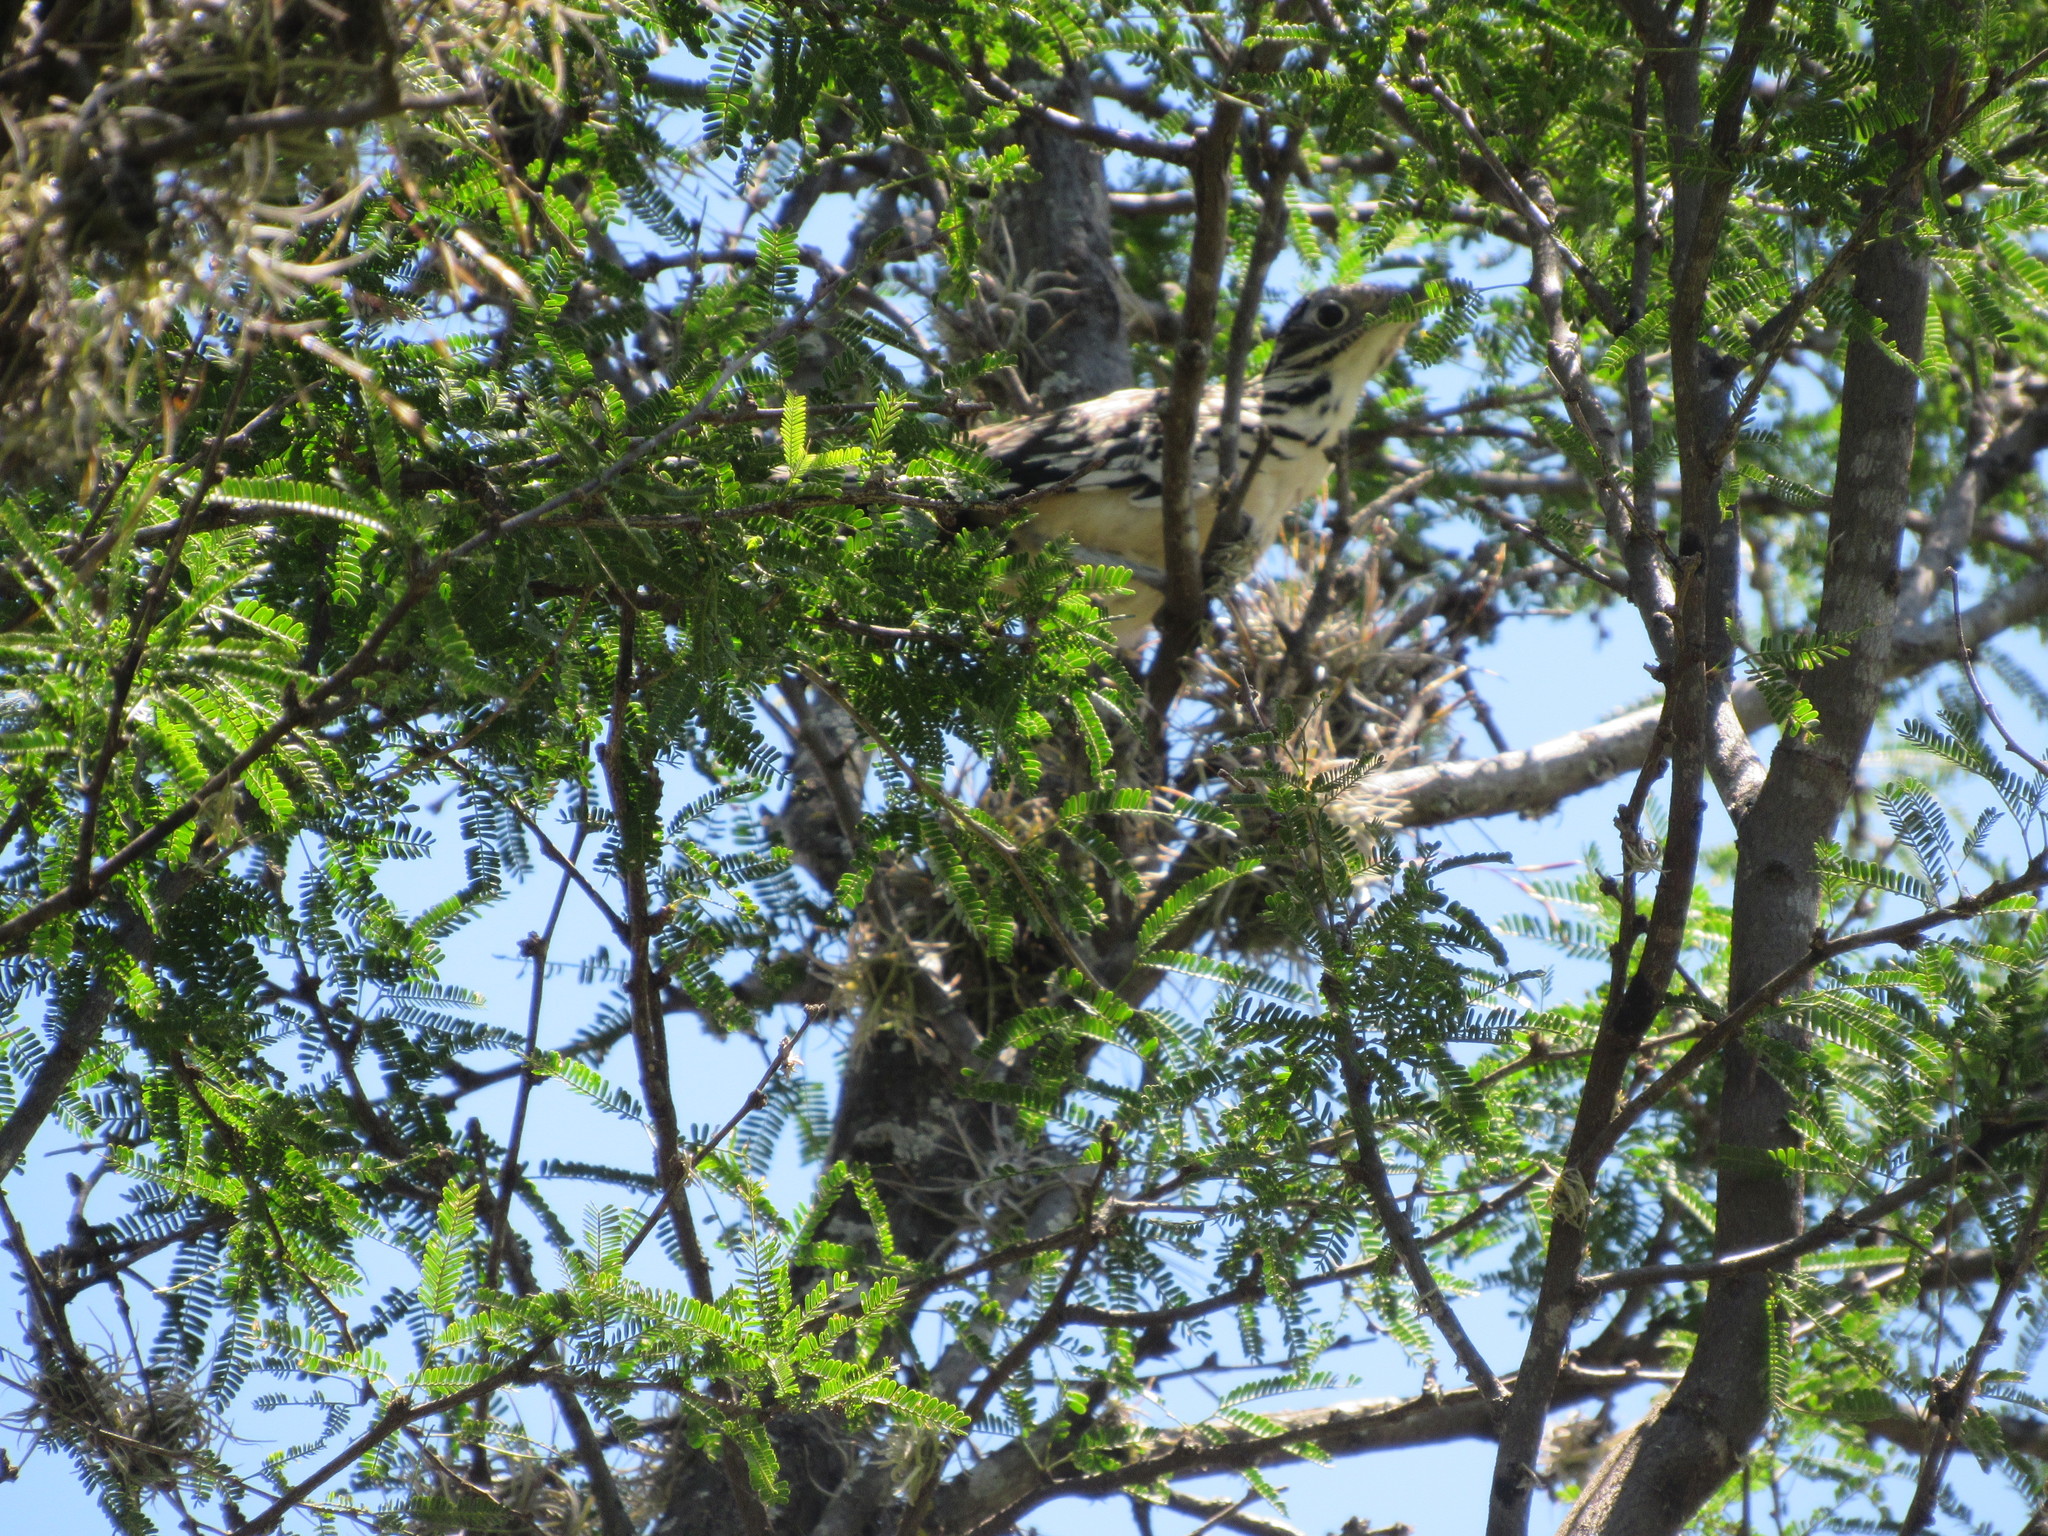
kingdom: Animalia
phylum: Chordata
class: Aves
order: Cuculiformes
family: Cuculidae
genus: Geococcyx
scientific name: Geococcyx velox
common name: Lesser roadrunner
